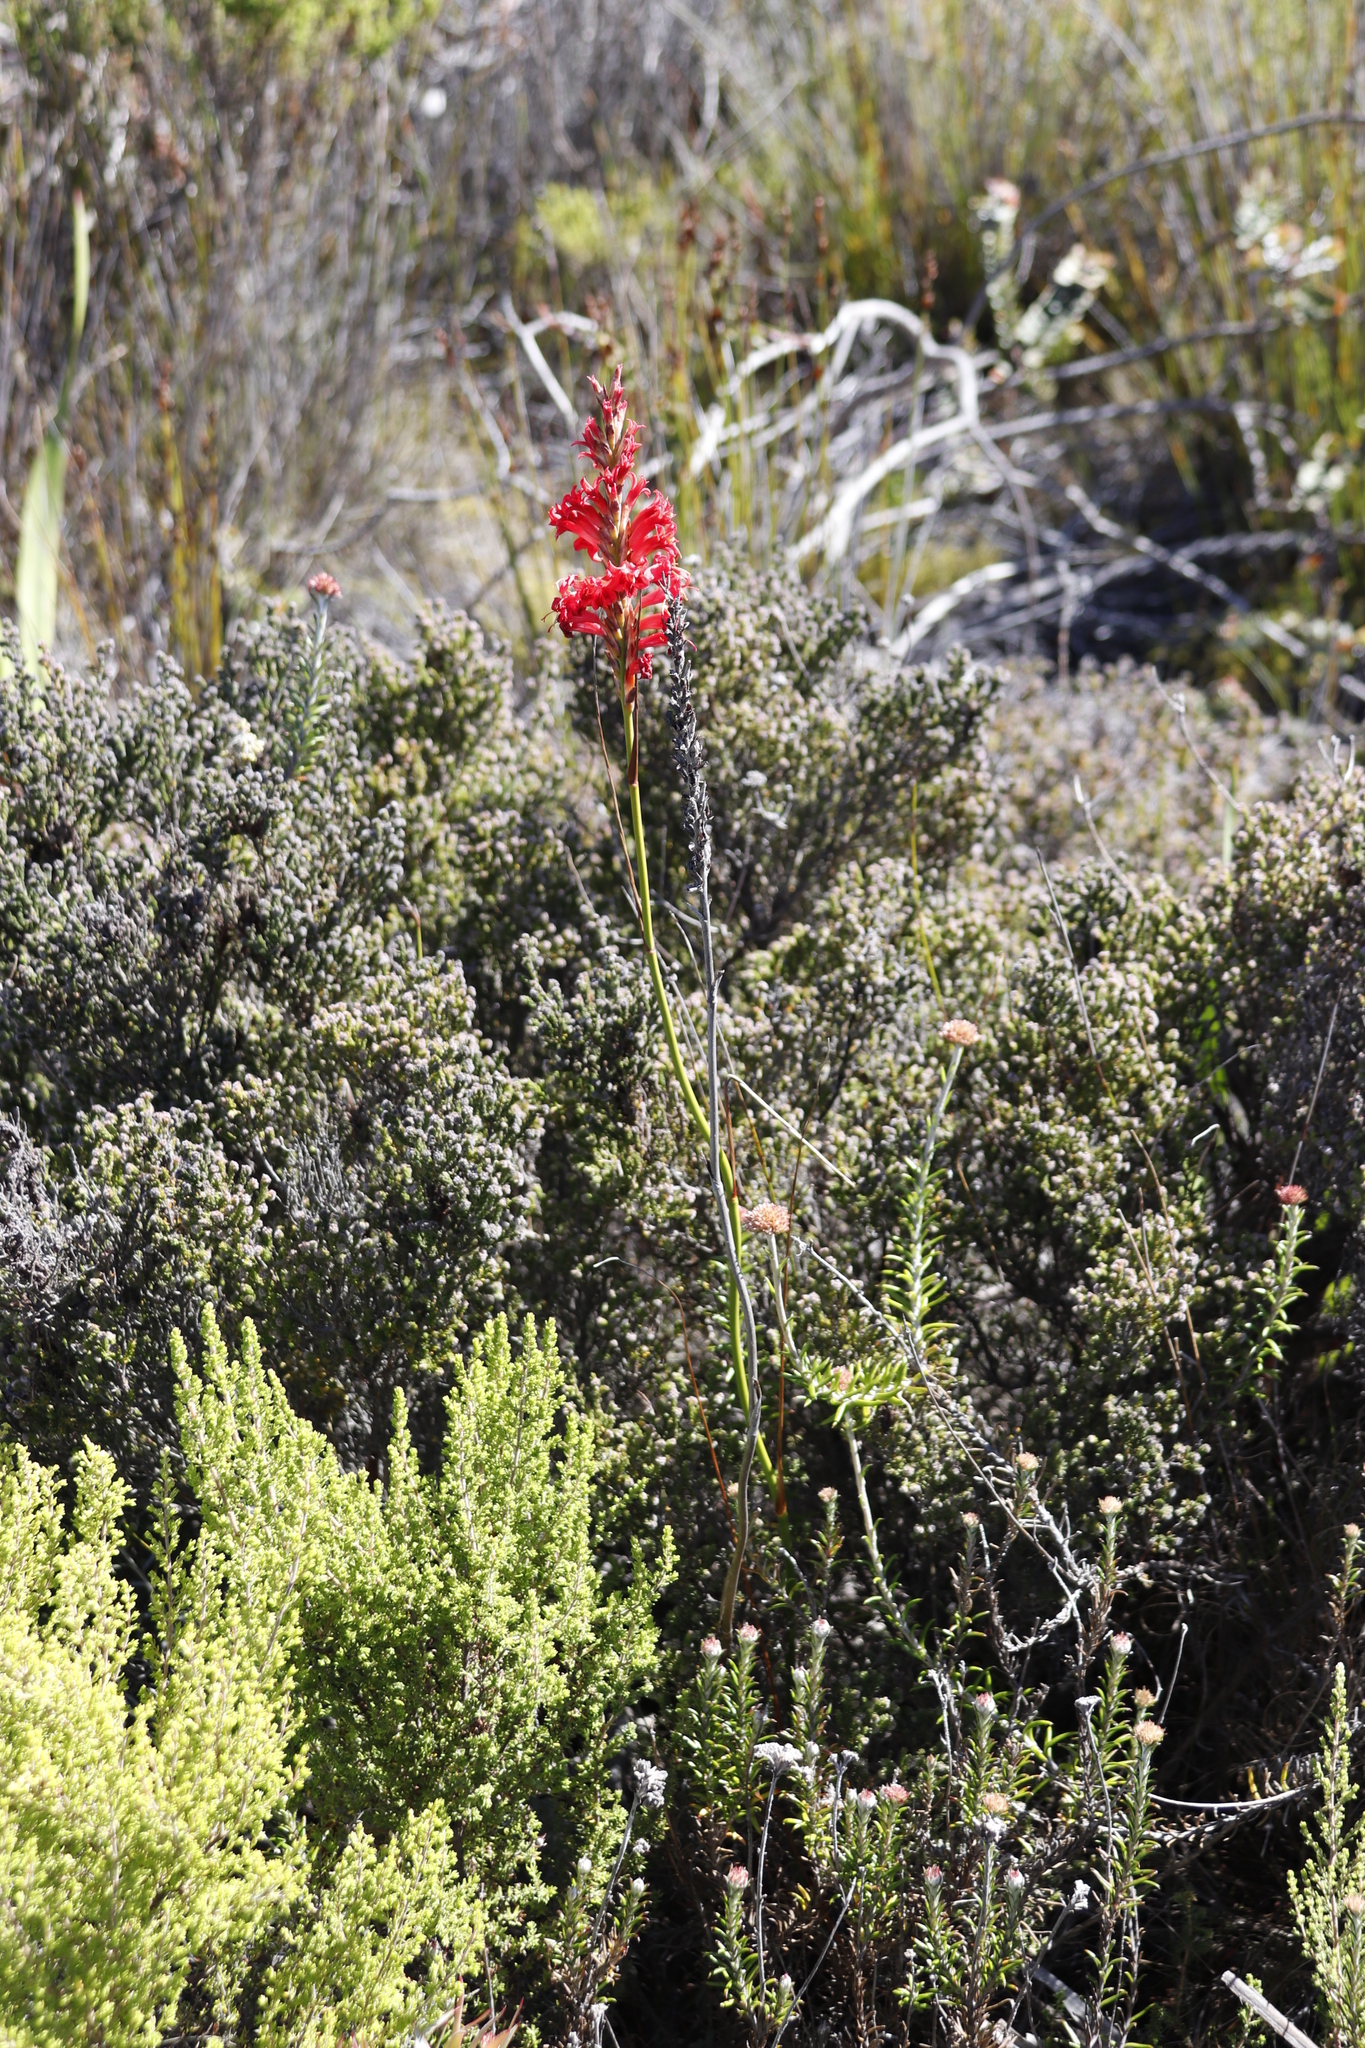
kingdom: Plantae
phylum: Tracheophyta
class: Liliopsida
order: Asparagales
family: Iridaceae
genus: Tritoniopsis
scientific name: Tritoniopsis triticea
